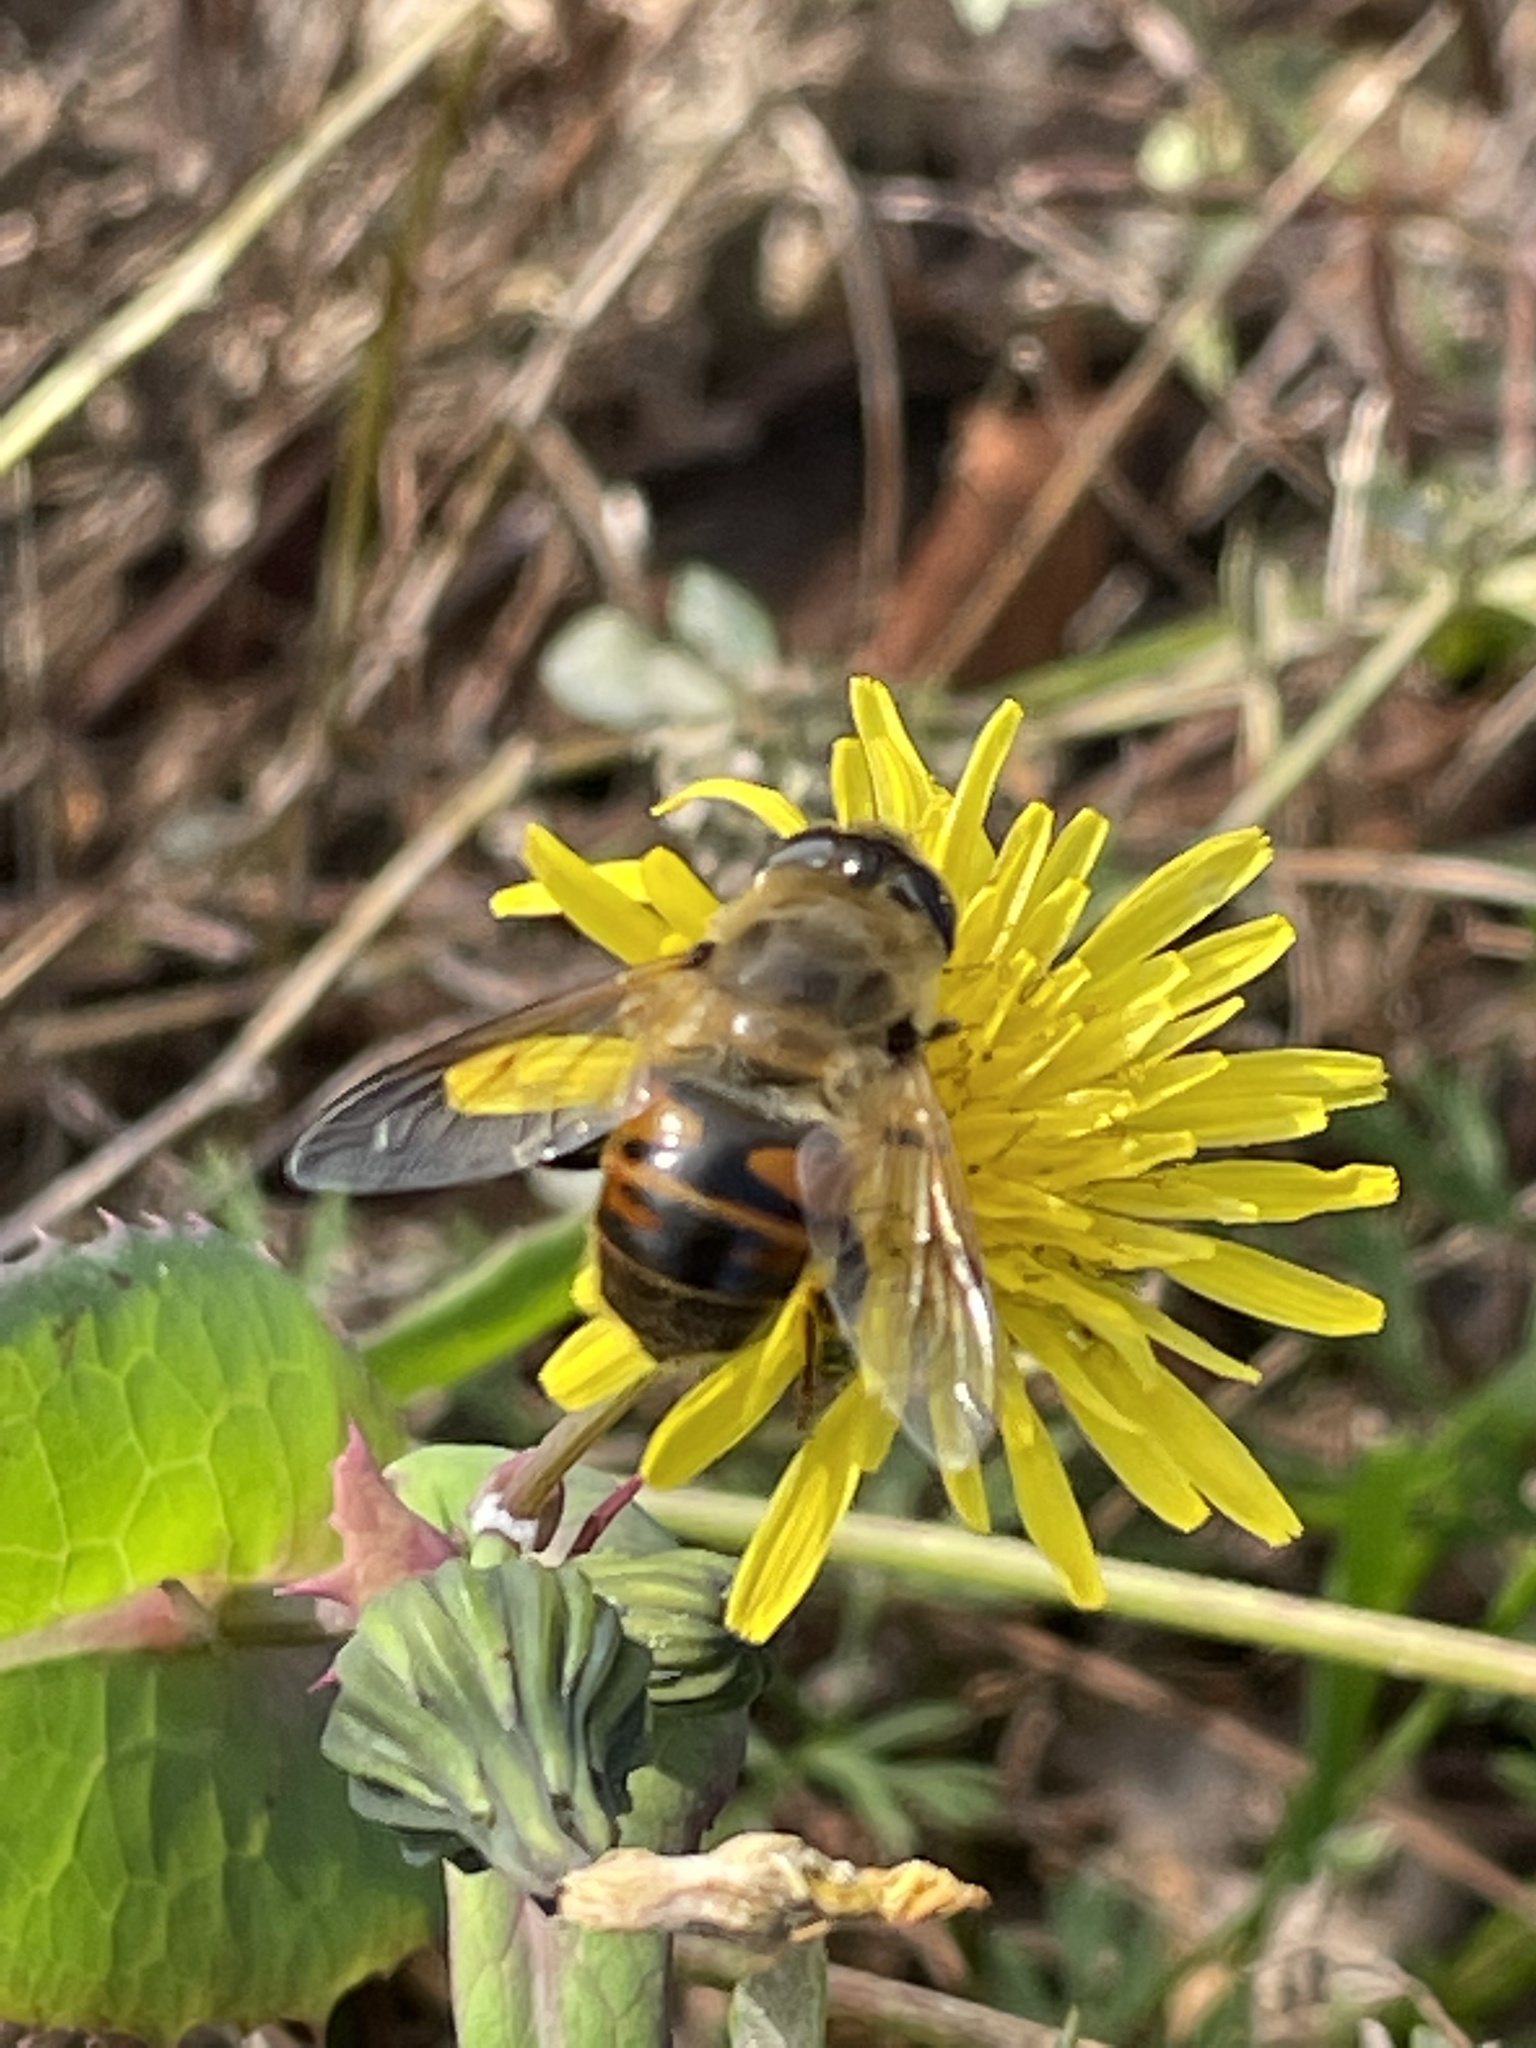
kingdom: Animalia
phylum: Arthropoda
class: Insecta
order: Diptera
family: Syrphidae
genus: Eristalis
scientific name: Eristalis tenax
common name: Drone fly
